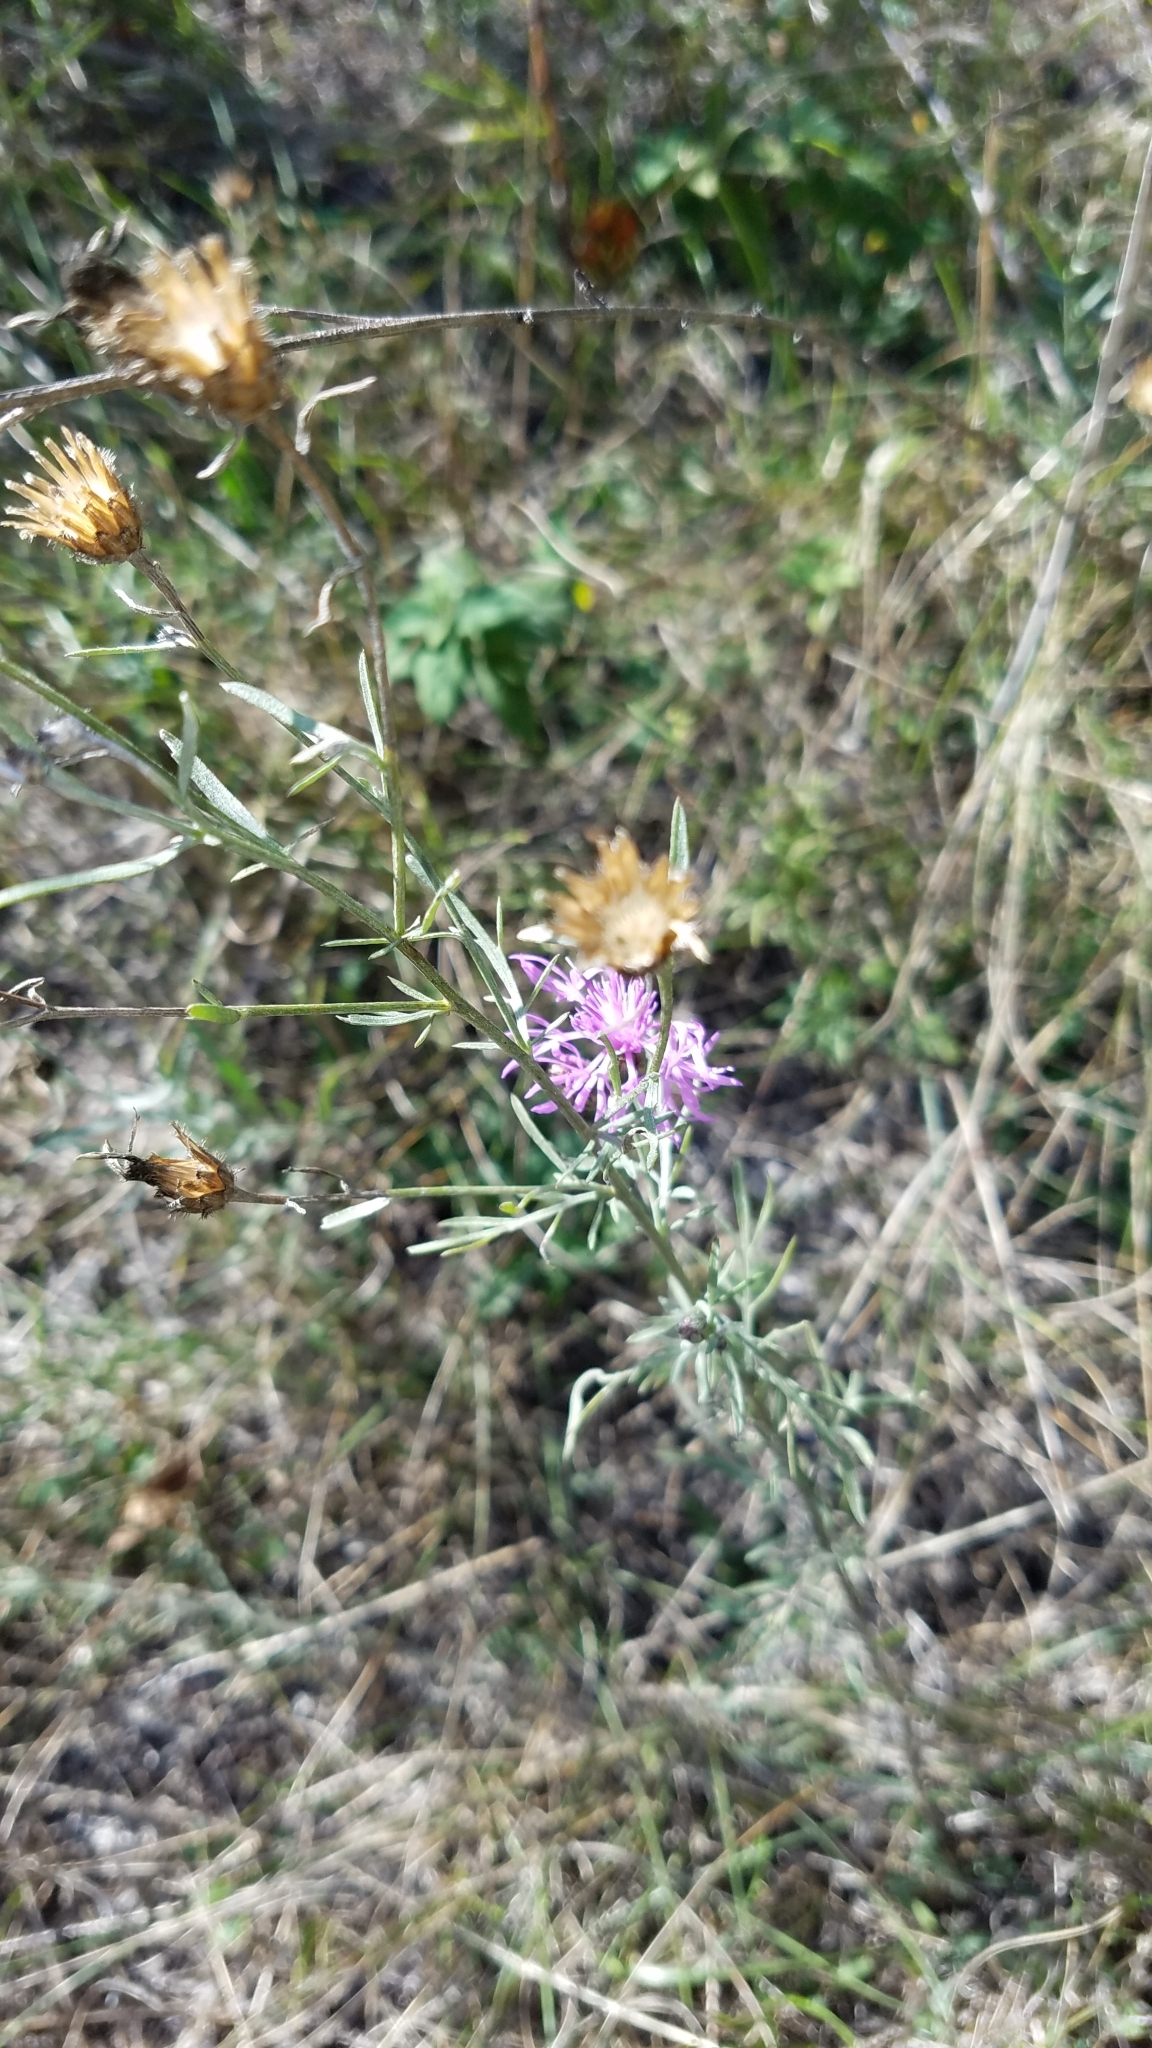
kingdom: Plantae
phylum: Tracheophyta
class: Magnoliopsida
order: Asterales
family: Asteraceae
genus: Centaurea
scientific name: Centaurea stoebe
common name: Spotted knapweed
